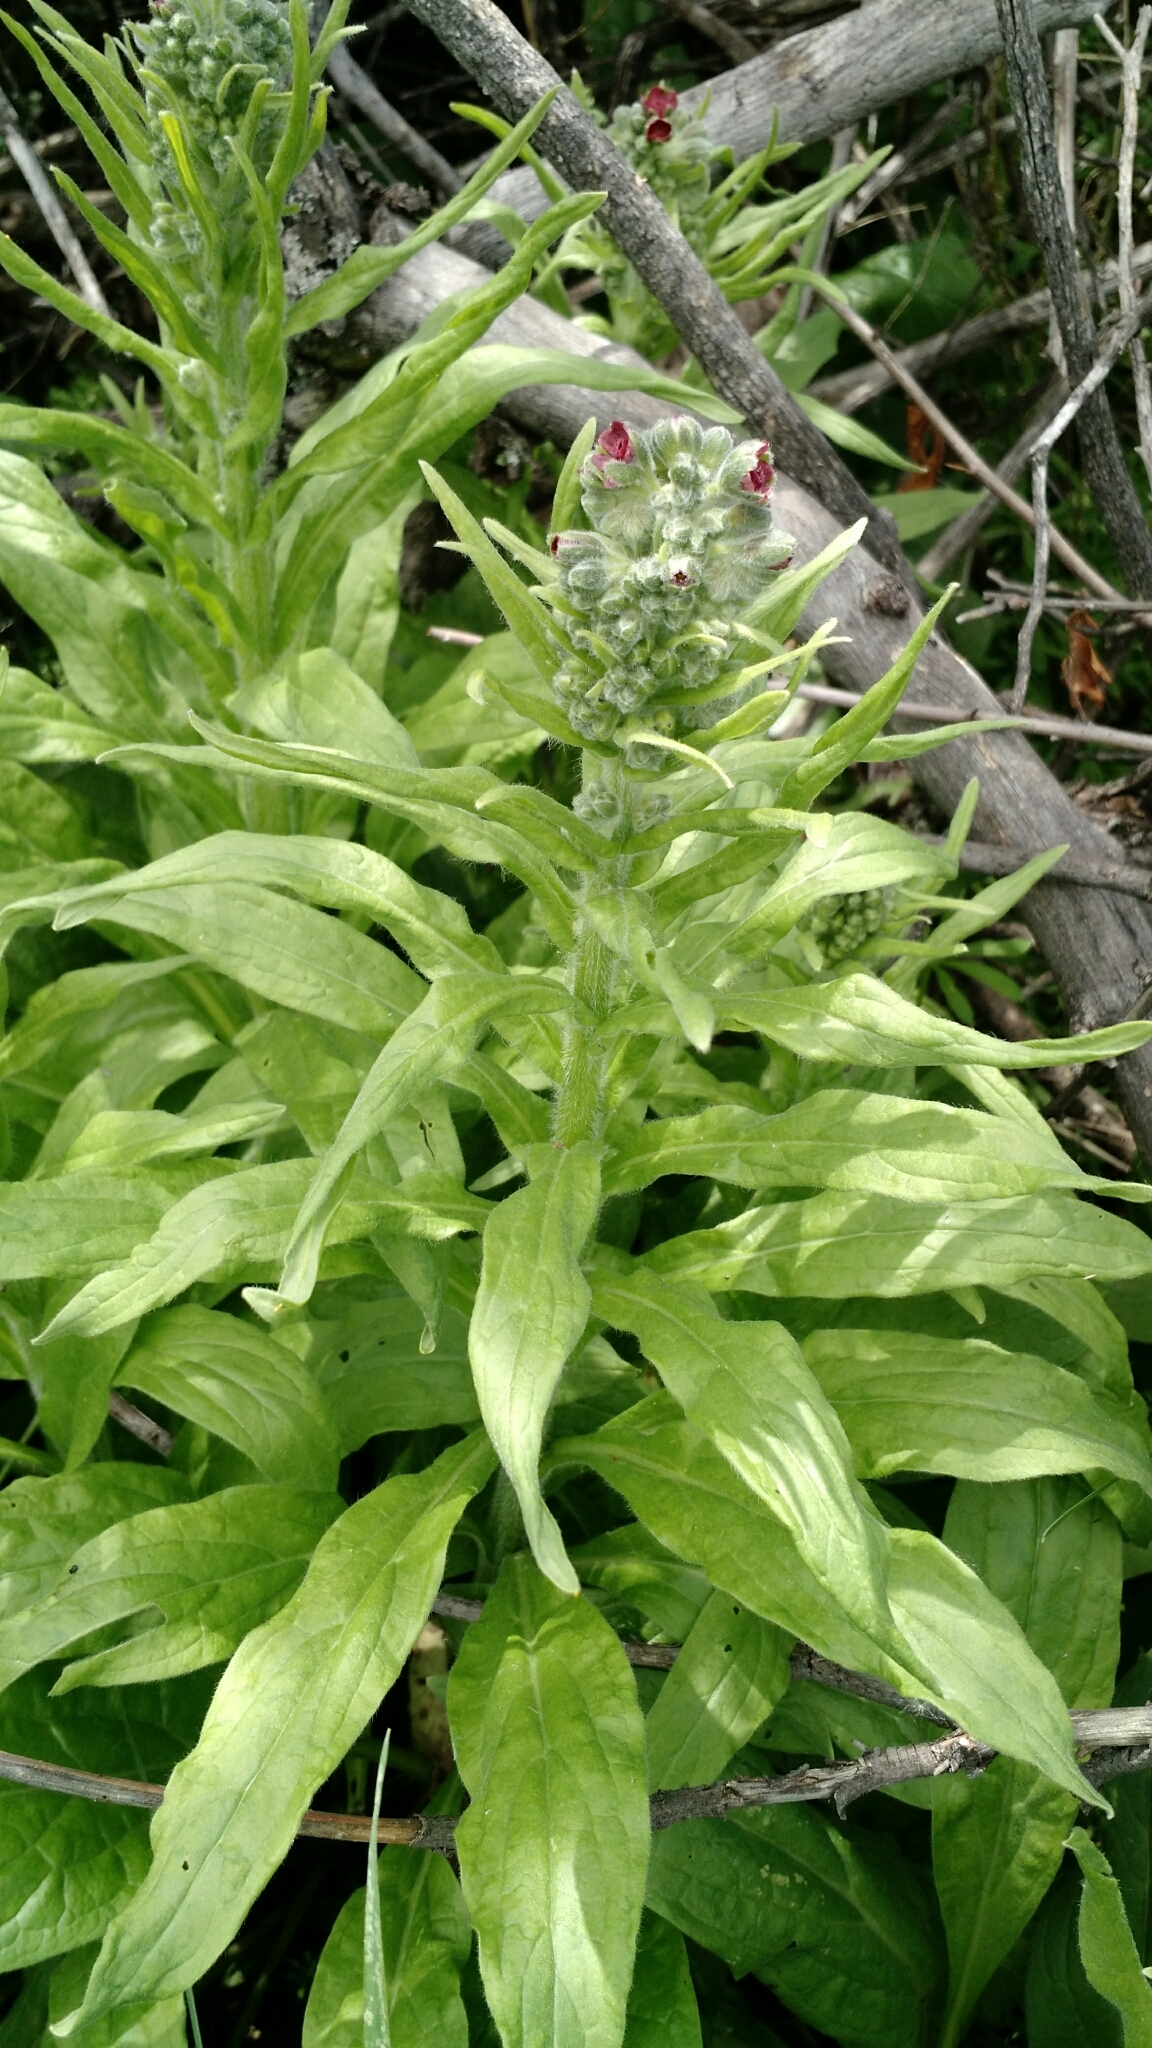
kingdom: Plantae
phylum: Tracheophyta
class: Magnoliopsida
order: Boraginales
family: Boraginaceae
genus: Cynoglossum
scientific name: Cynoglossum officinale
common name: Hound's-tongue
